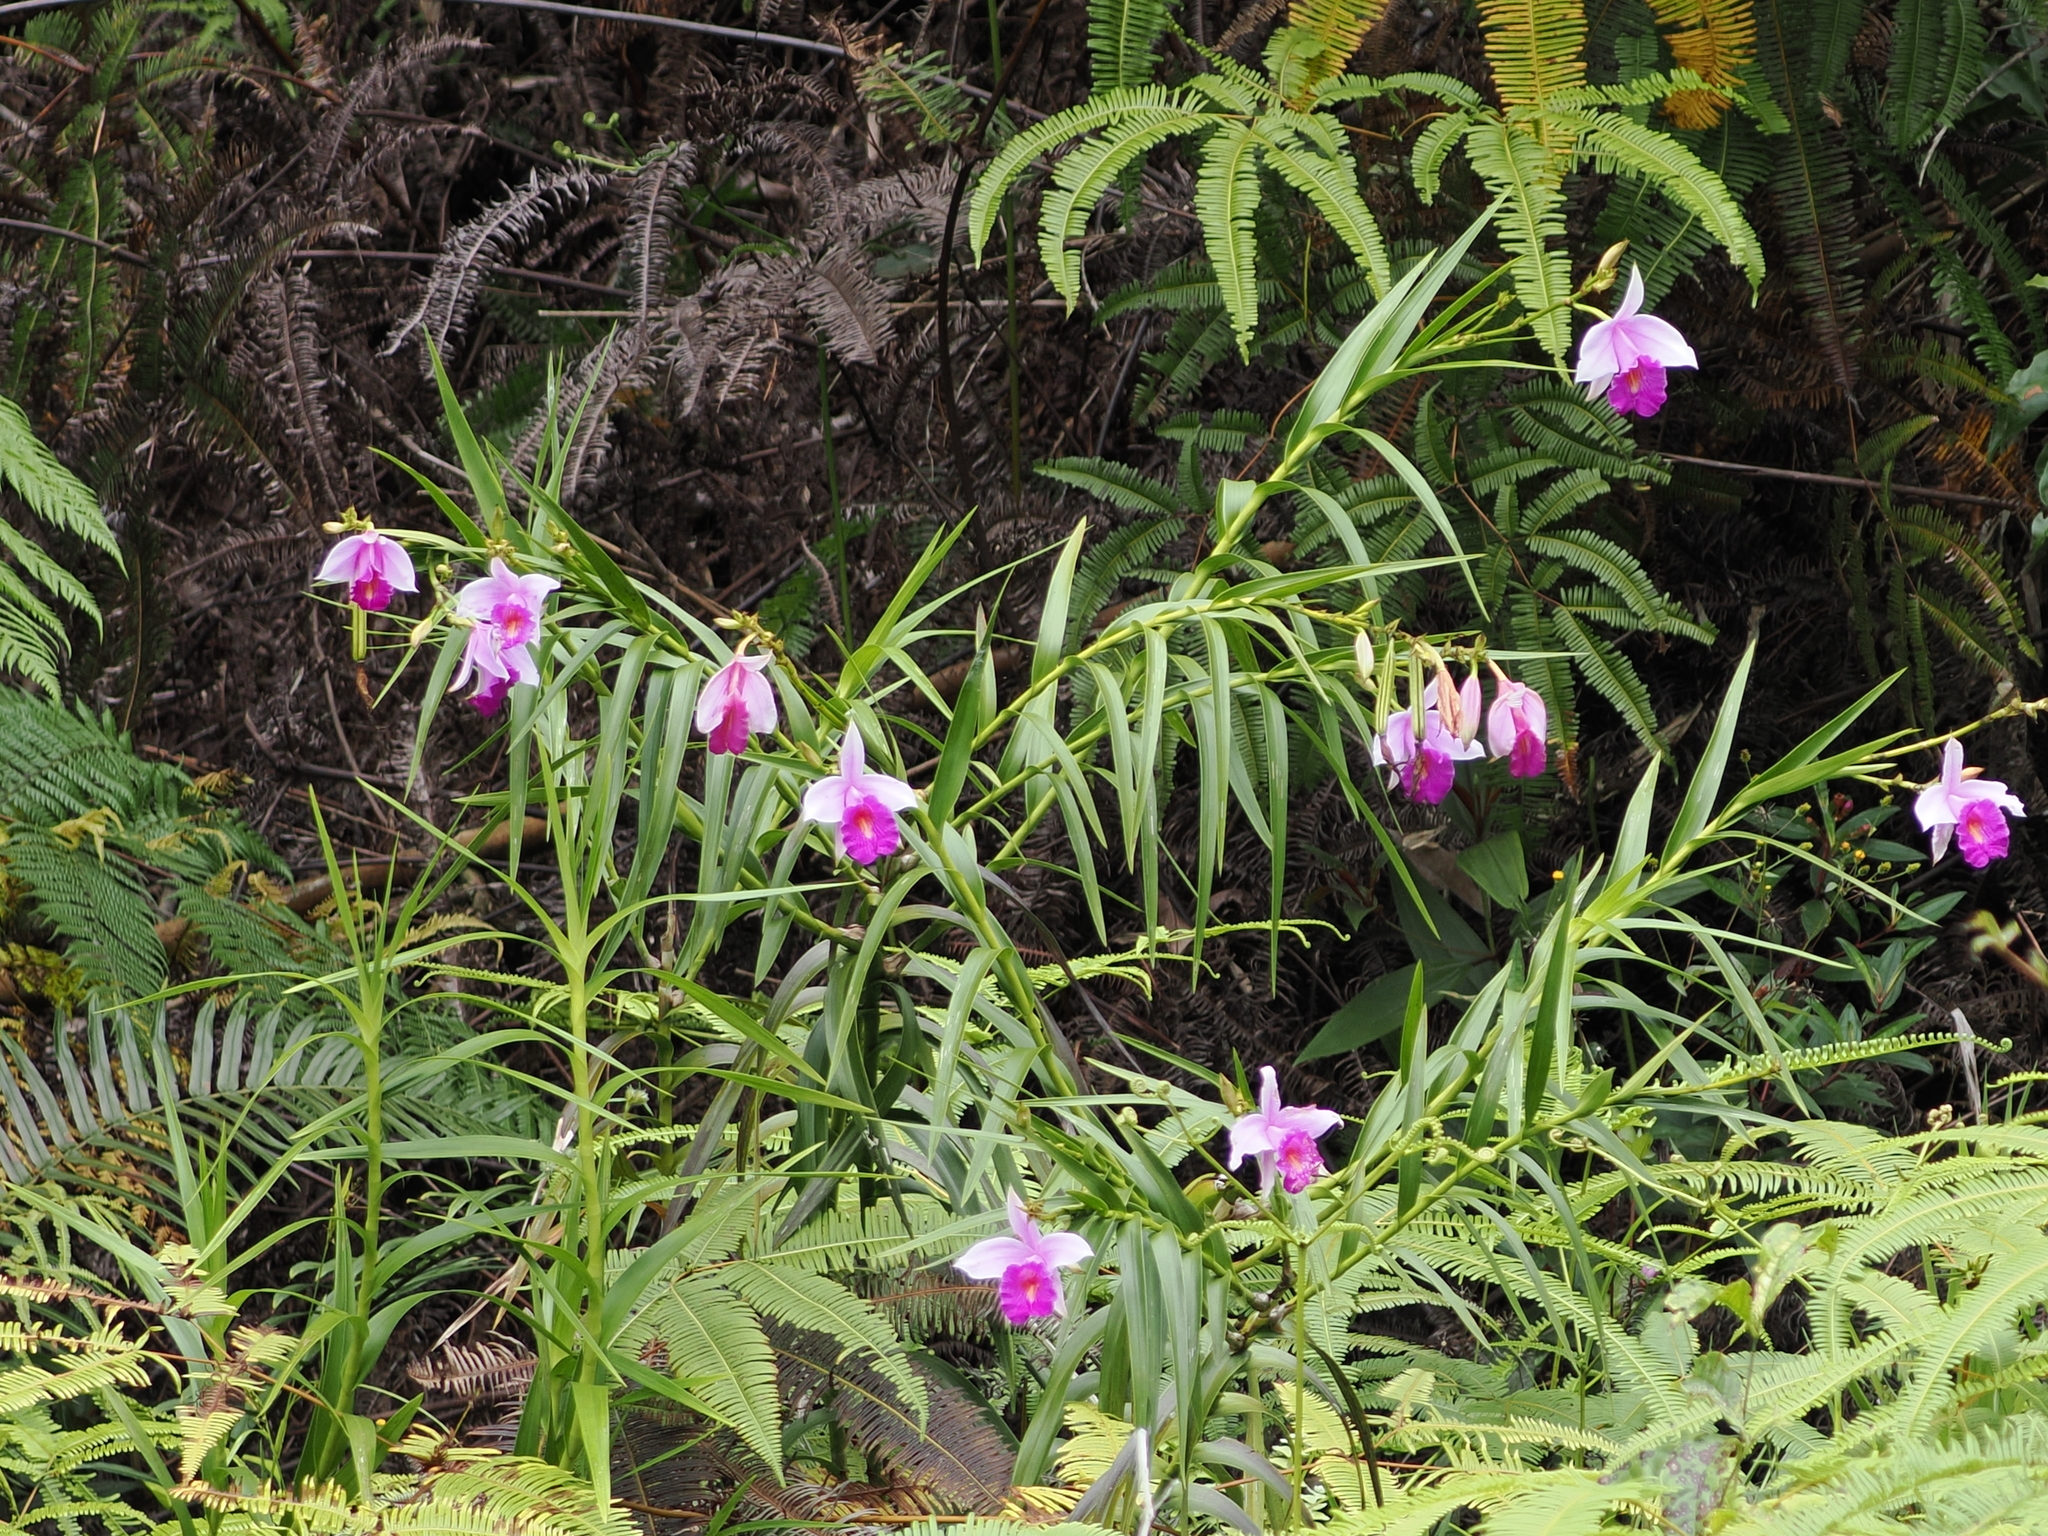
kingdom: Plantae
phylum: Tracheophyta
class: Liliopsida
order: Asparagales
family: Orchidaceae
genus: Arundina
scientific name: Arundina graminifolia
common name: Bamboo orchid
